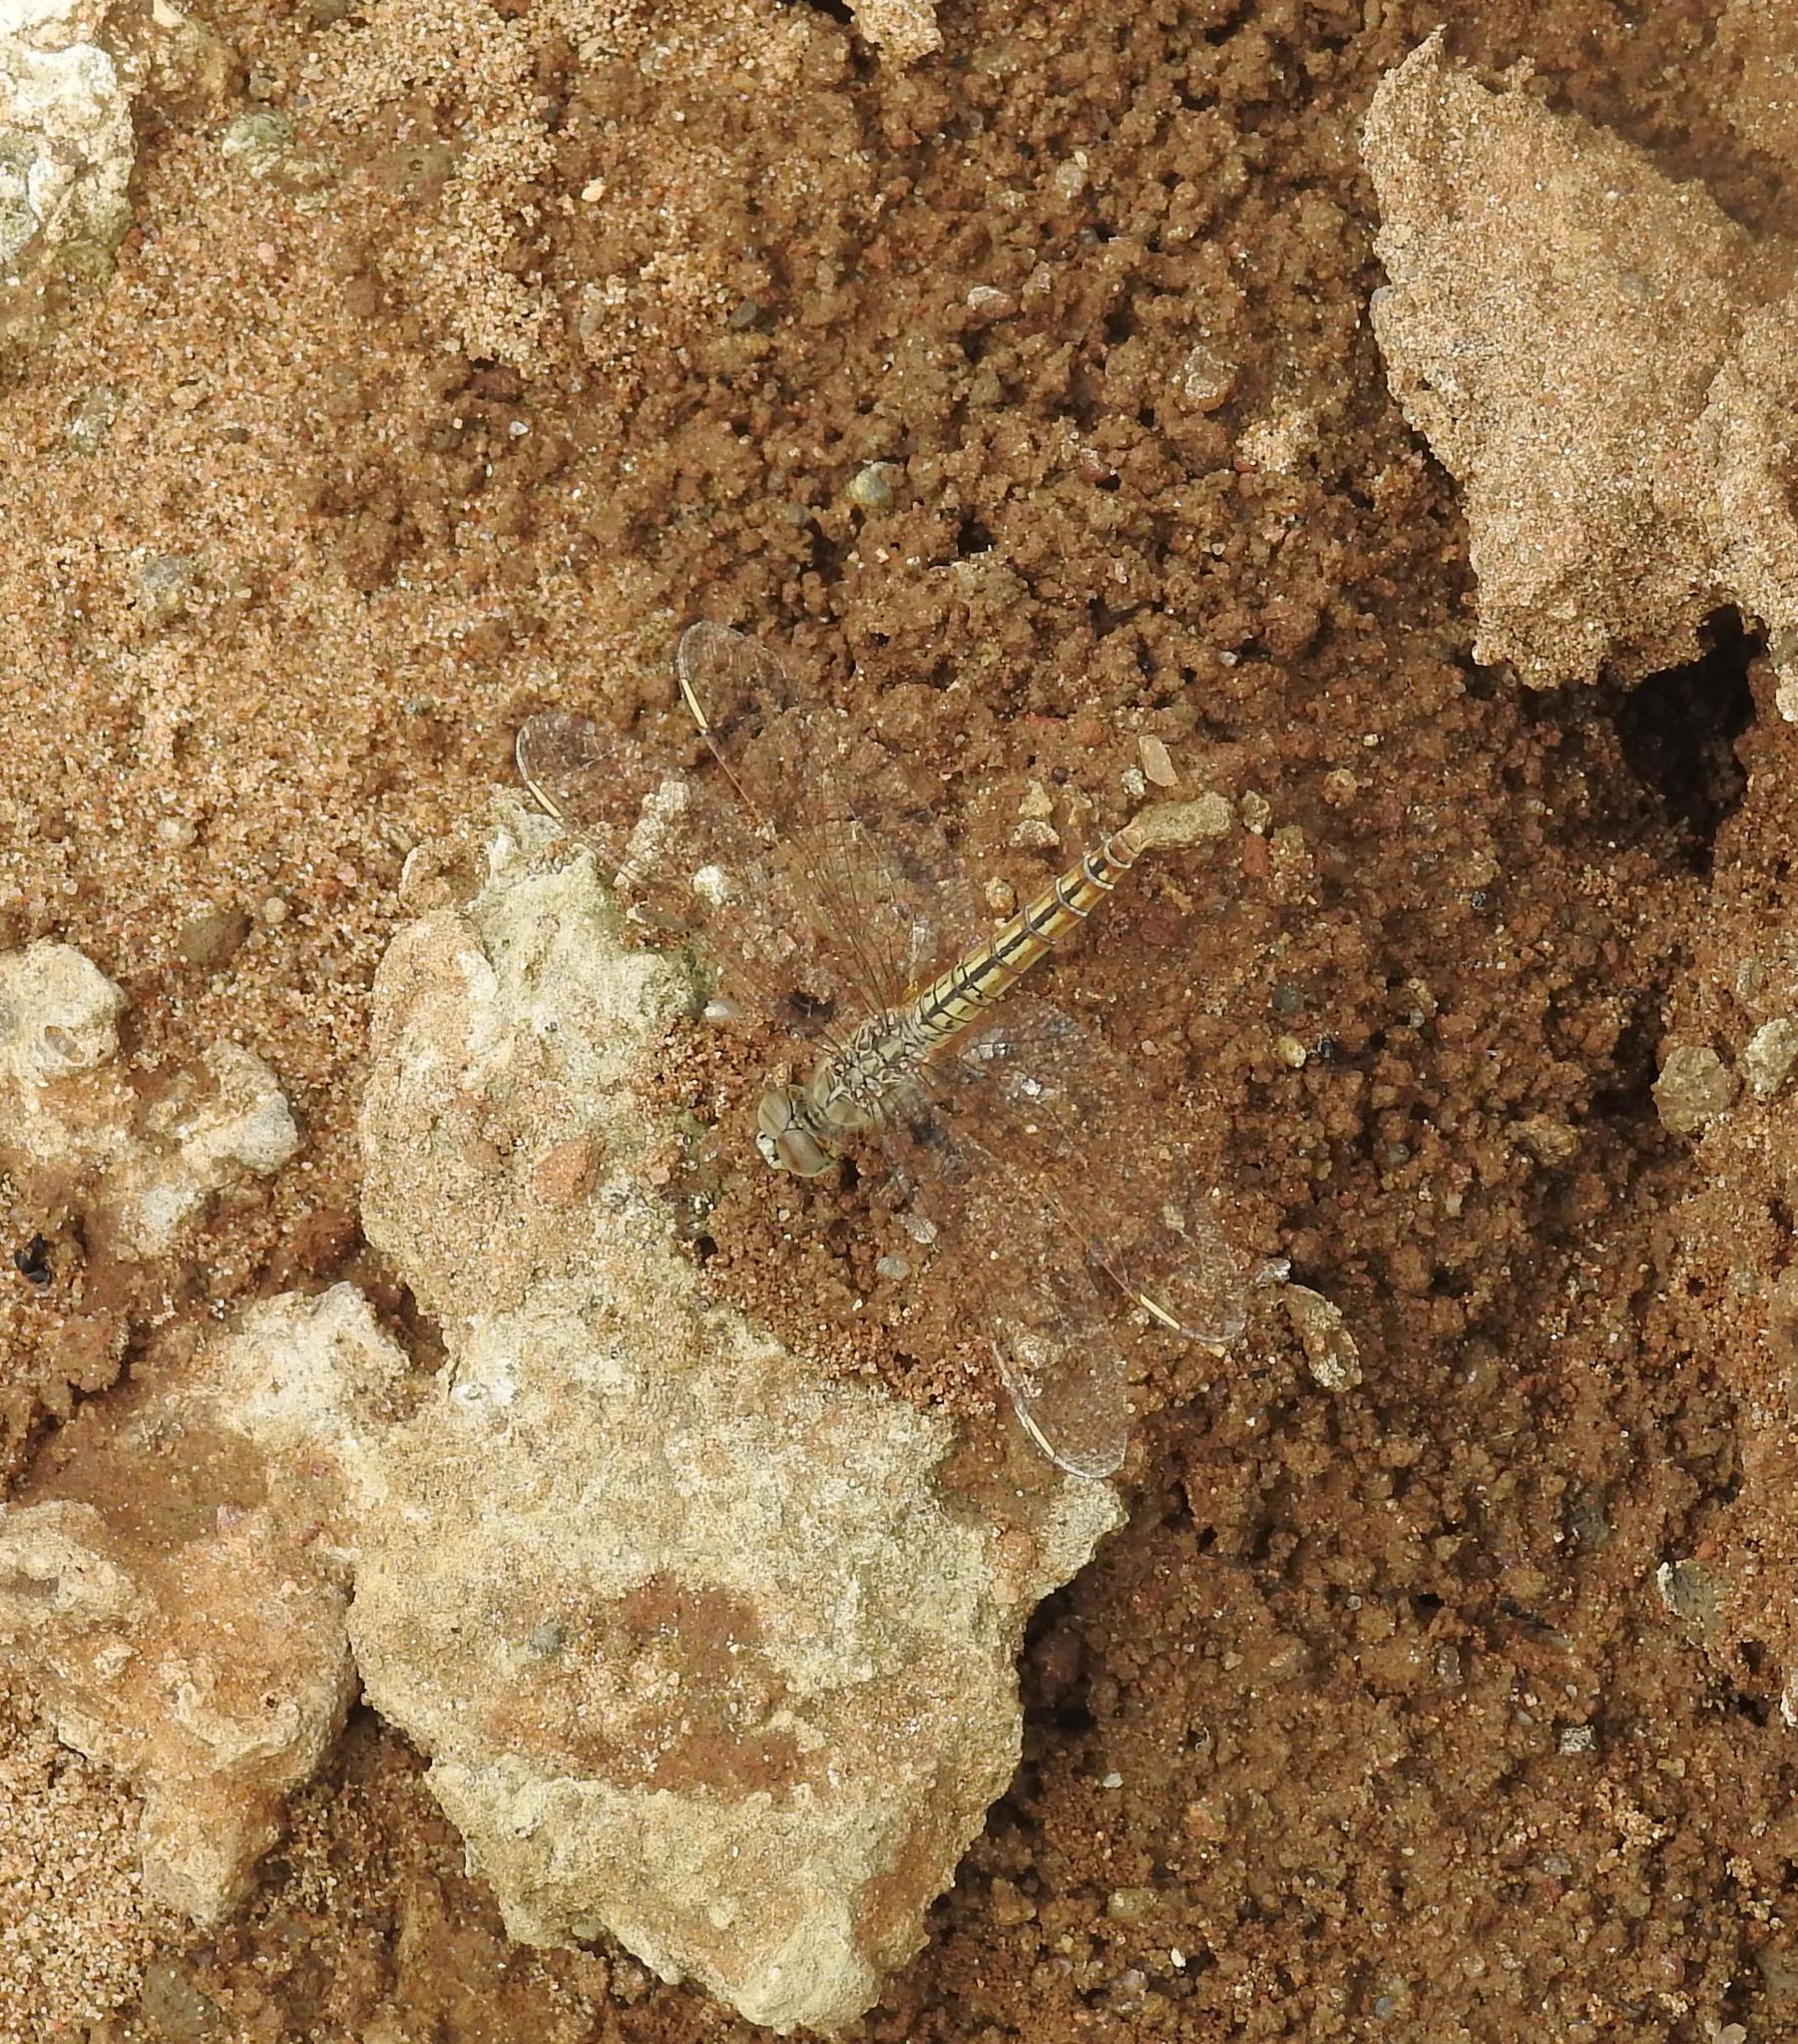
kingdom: Animalia
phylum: Arthropoda
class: Insecta
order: Odonata
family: Libellulidae
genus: Brachythemis
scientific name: Brachythemis contaminata
